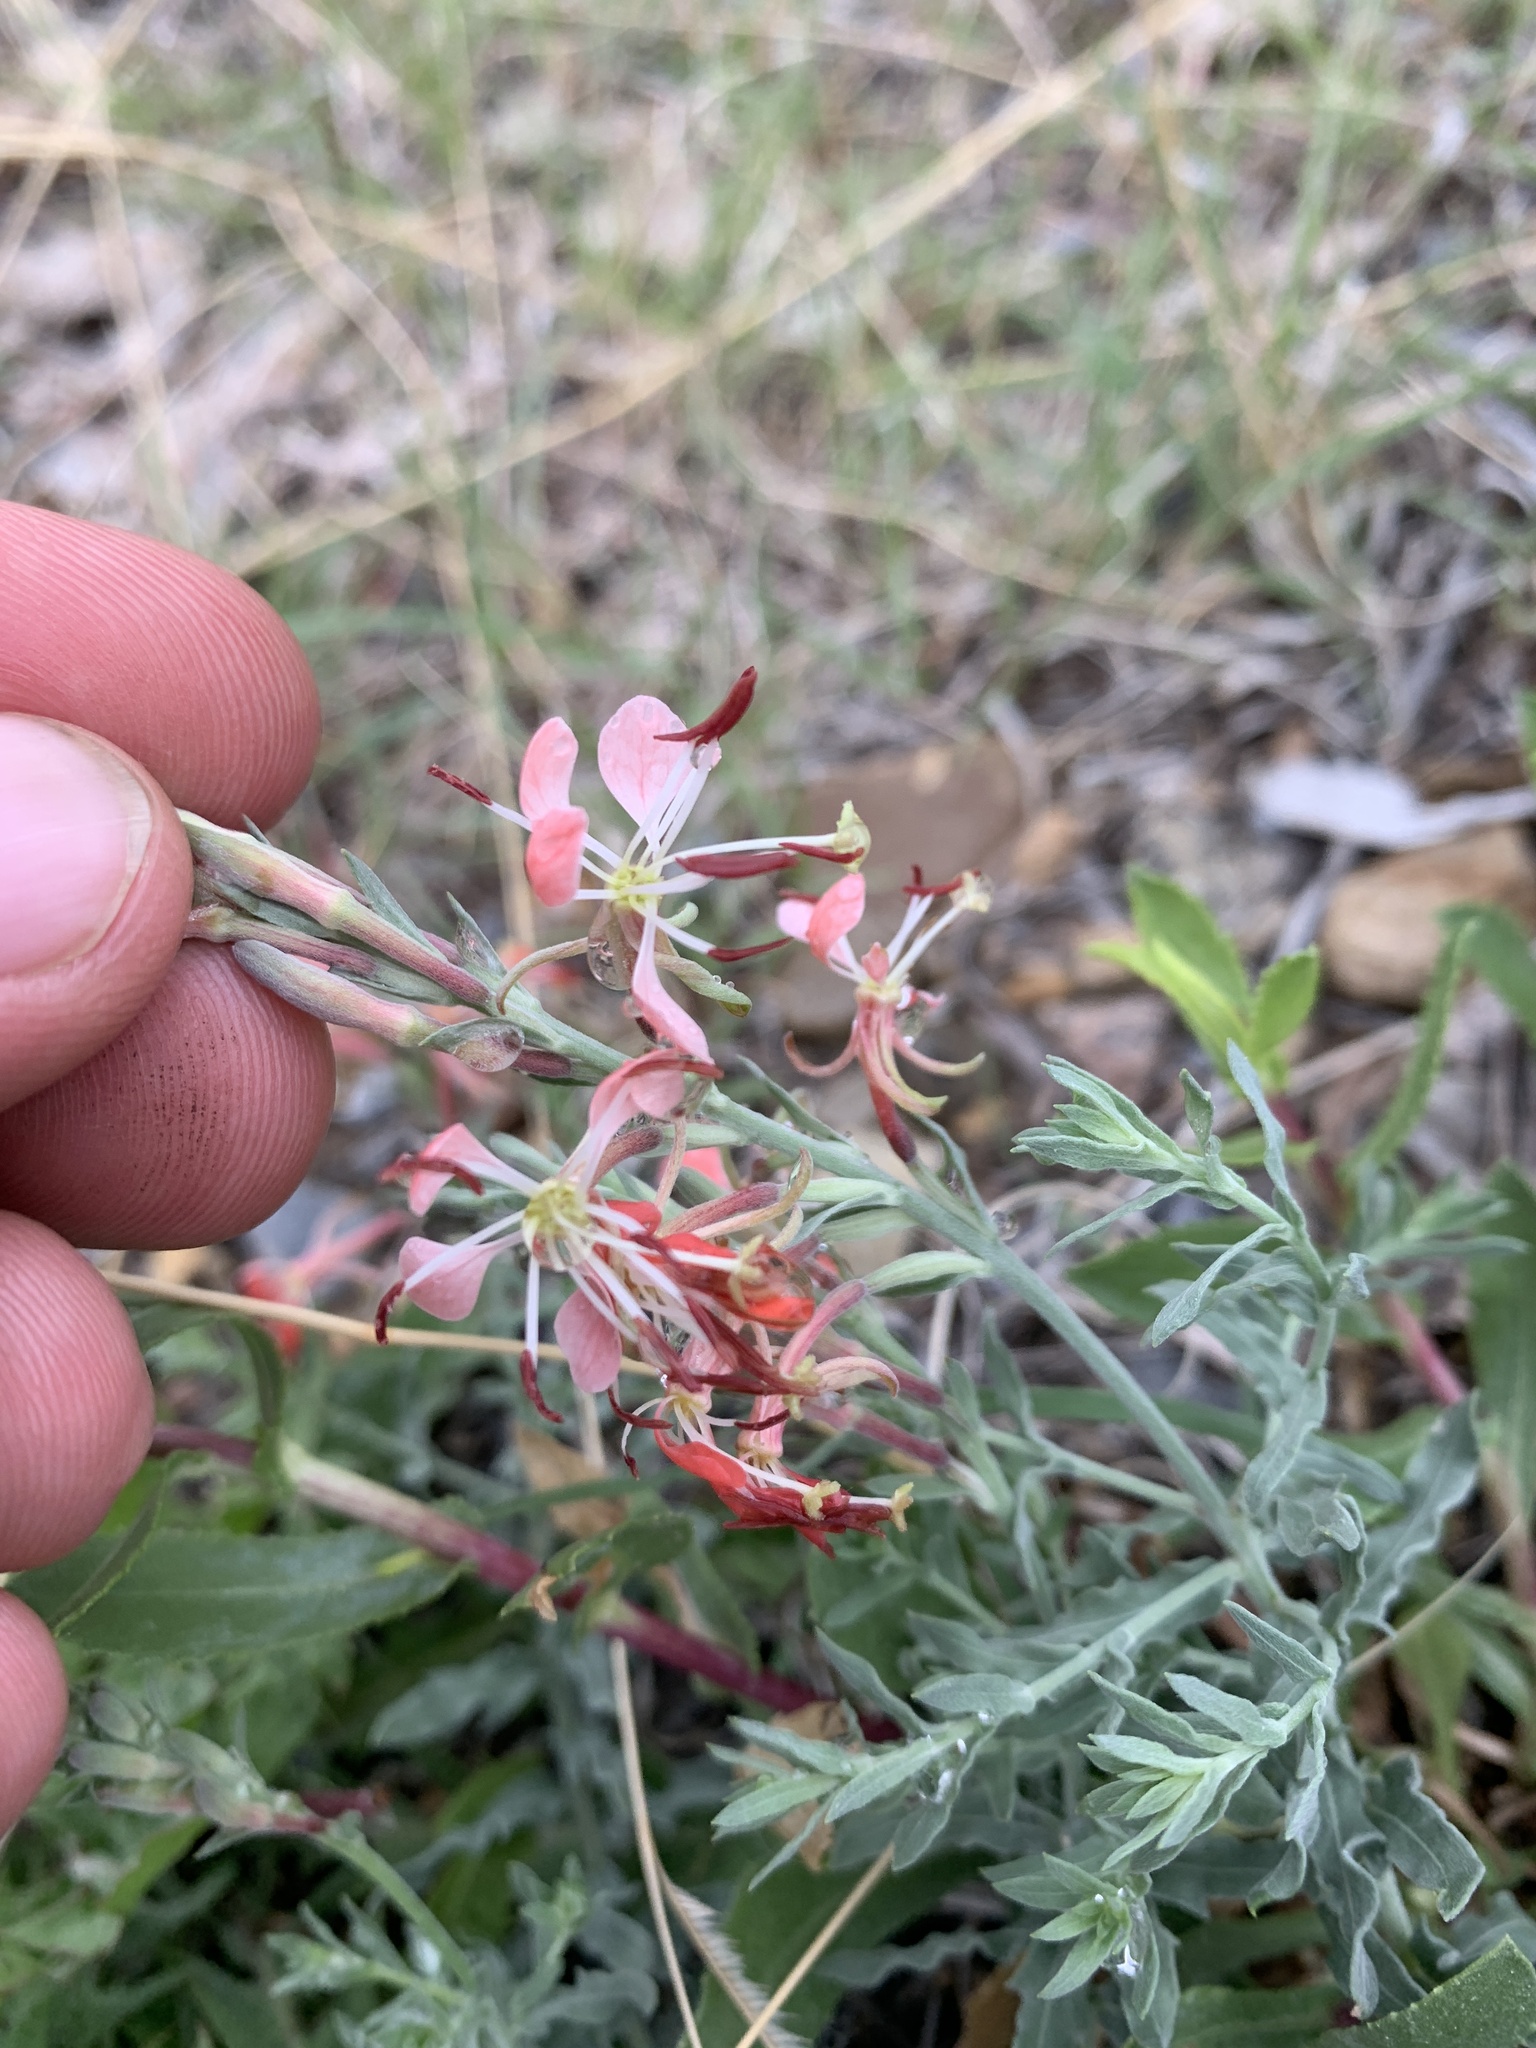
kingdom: Plantae
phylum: Tracheophyta
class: Magnoliopsida
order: Myrtales
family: Onagraceae
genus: Oenothera
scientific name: Oenothera suffrutescens
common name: Scarlet beeblossom
